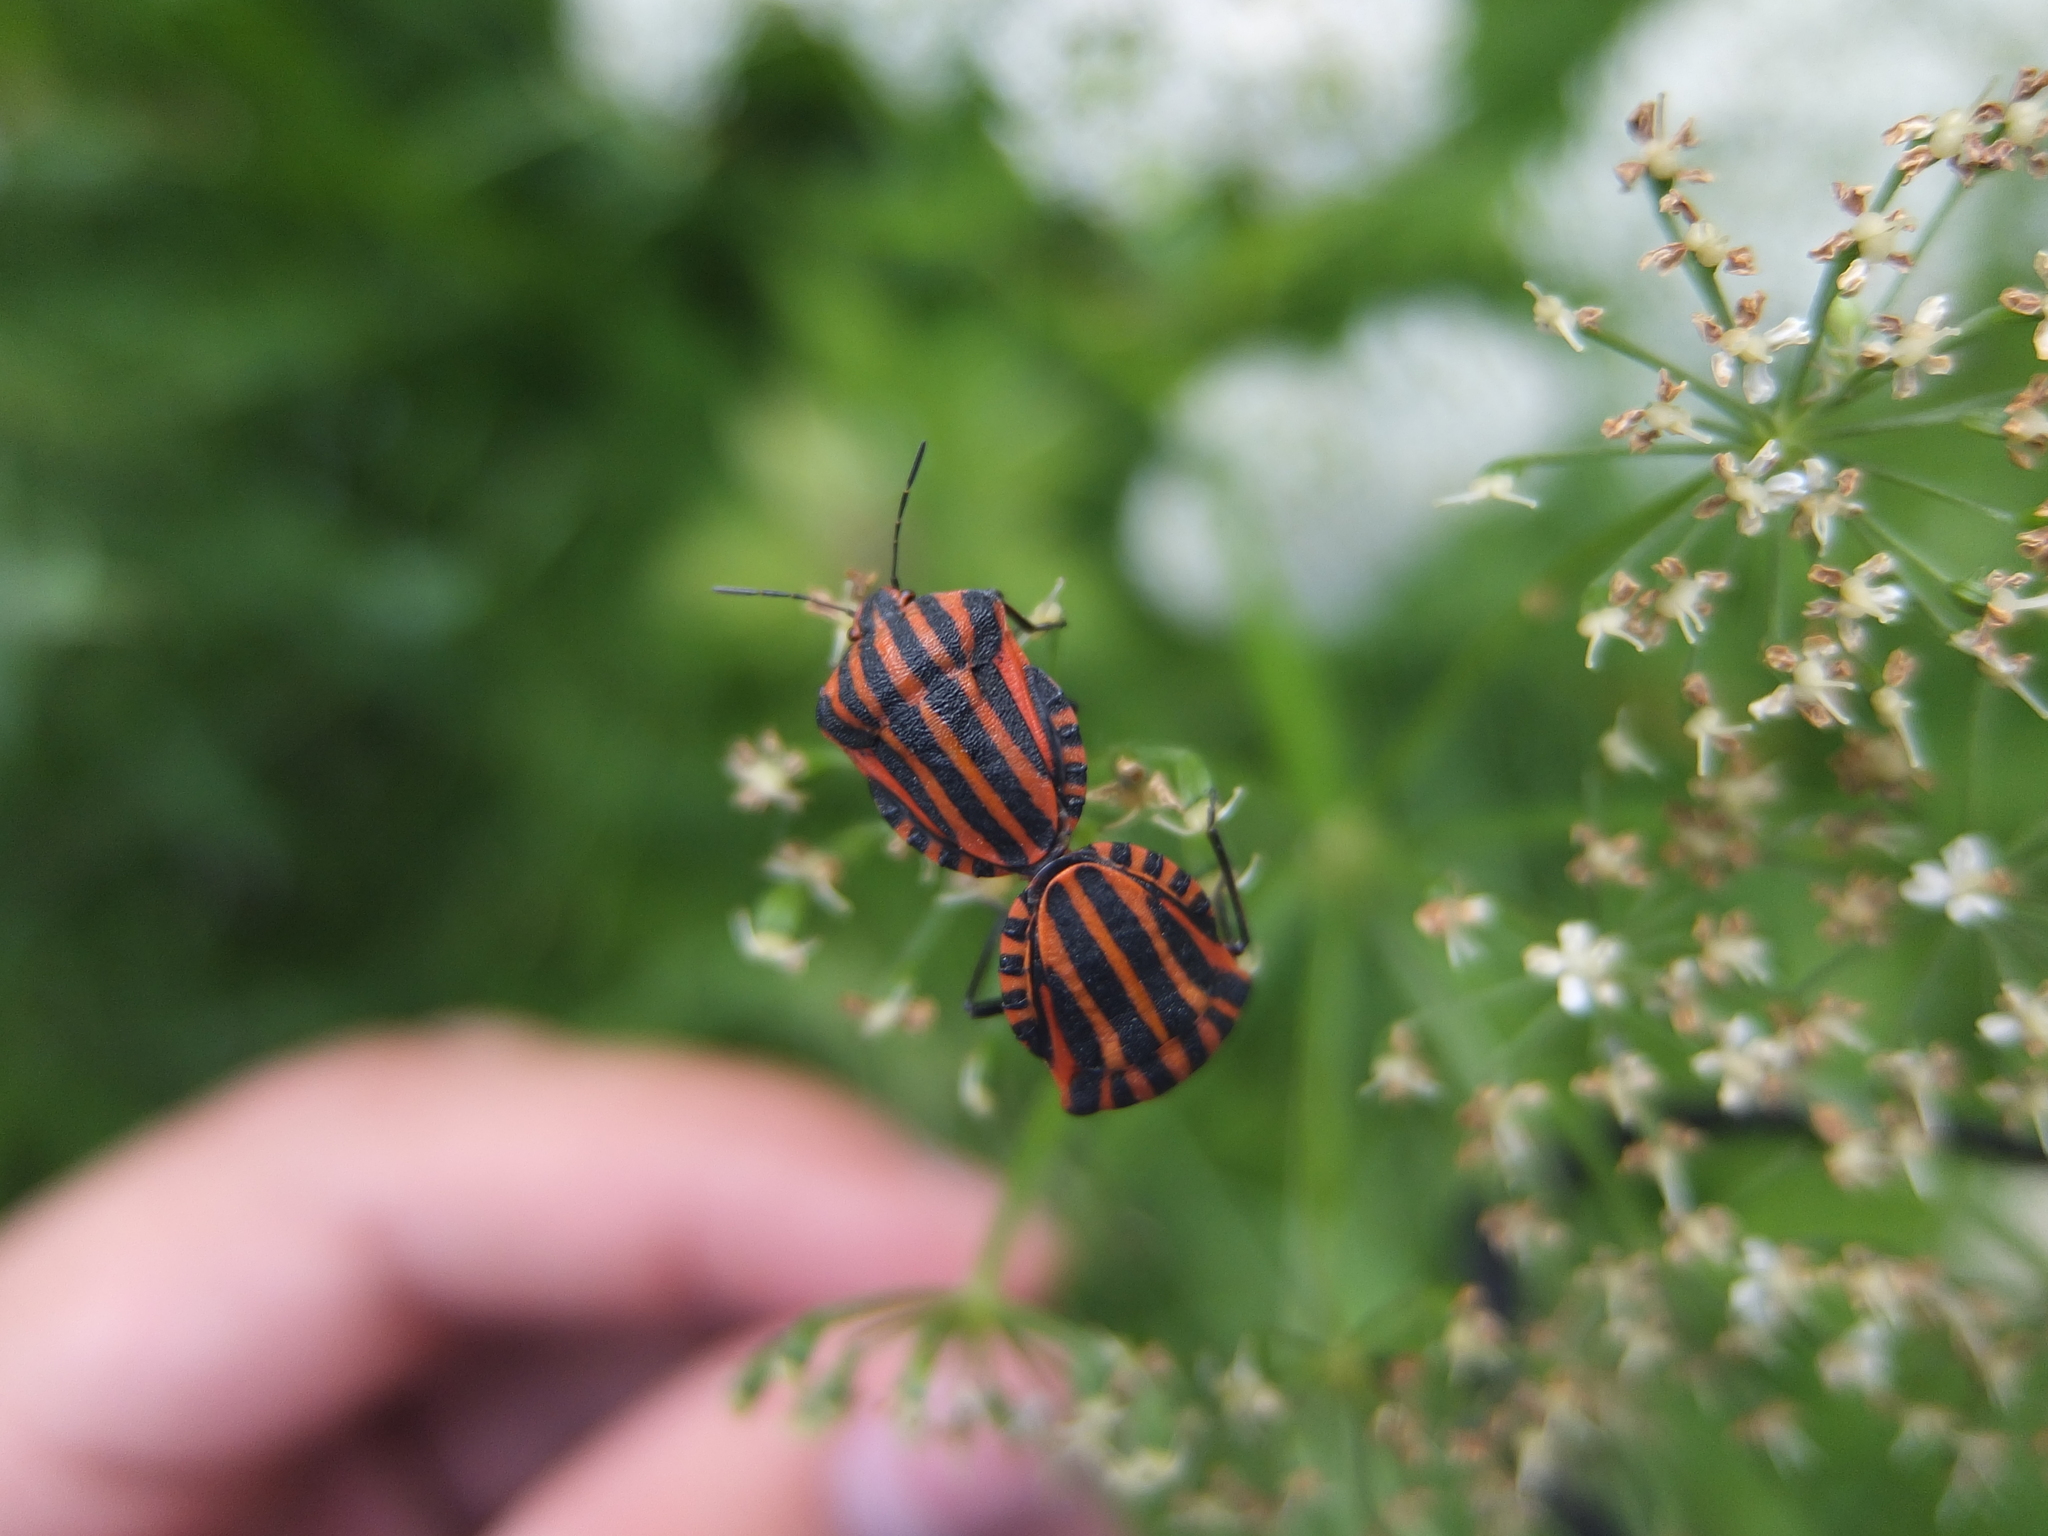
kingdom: Animalia
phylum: Arthropoda
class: Insecta
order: Hemiptera
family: Pentatomidae
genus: Graphosoma
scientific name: Graphosoma italicum
